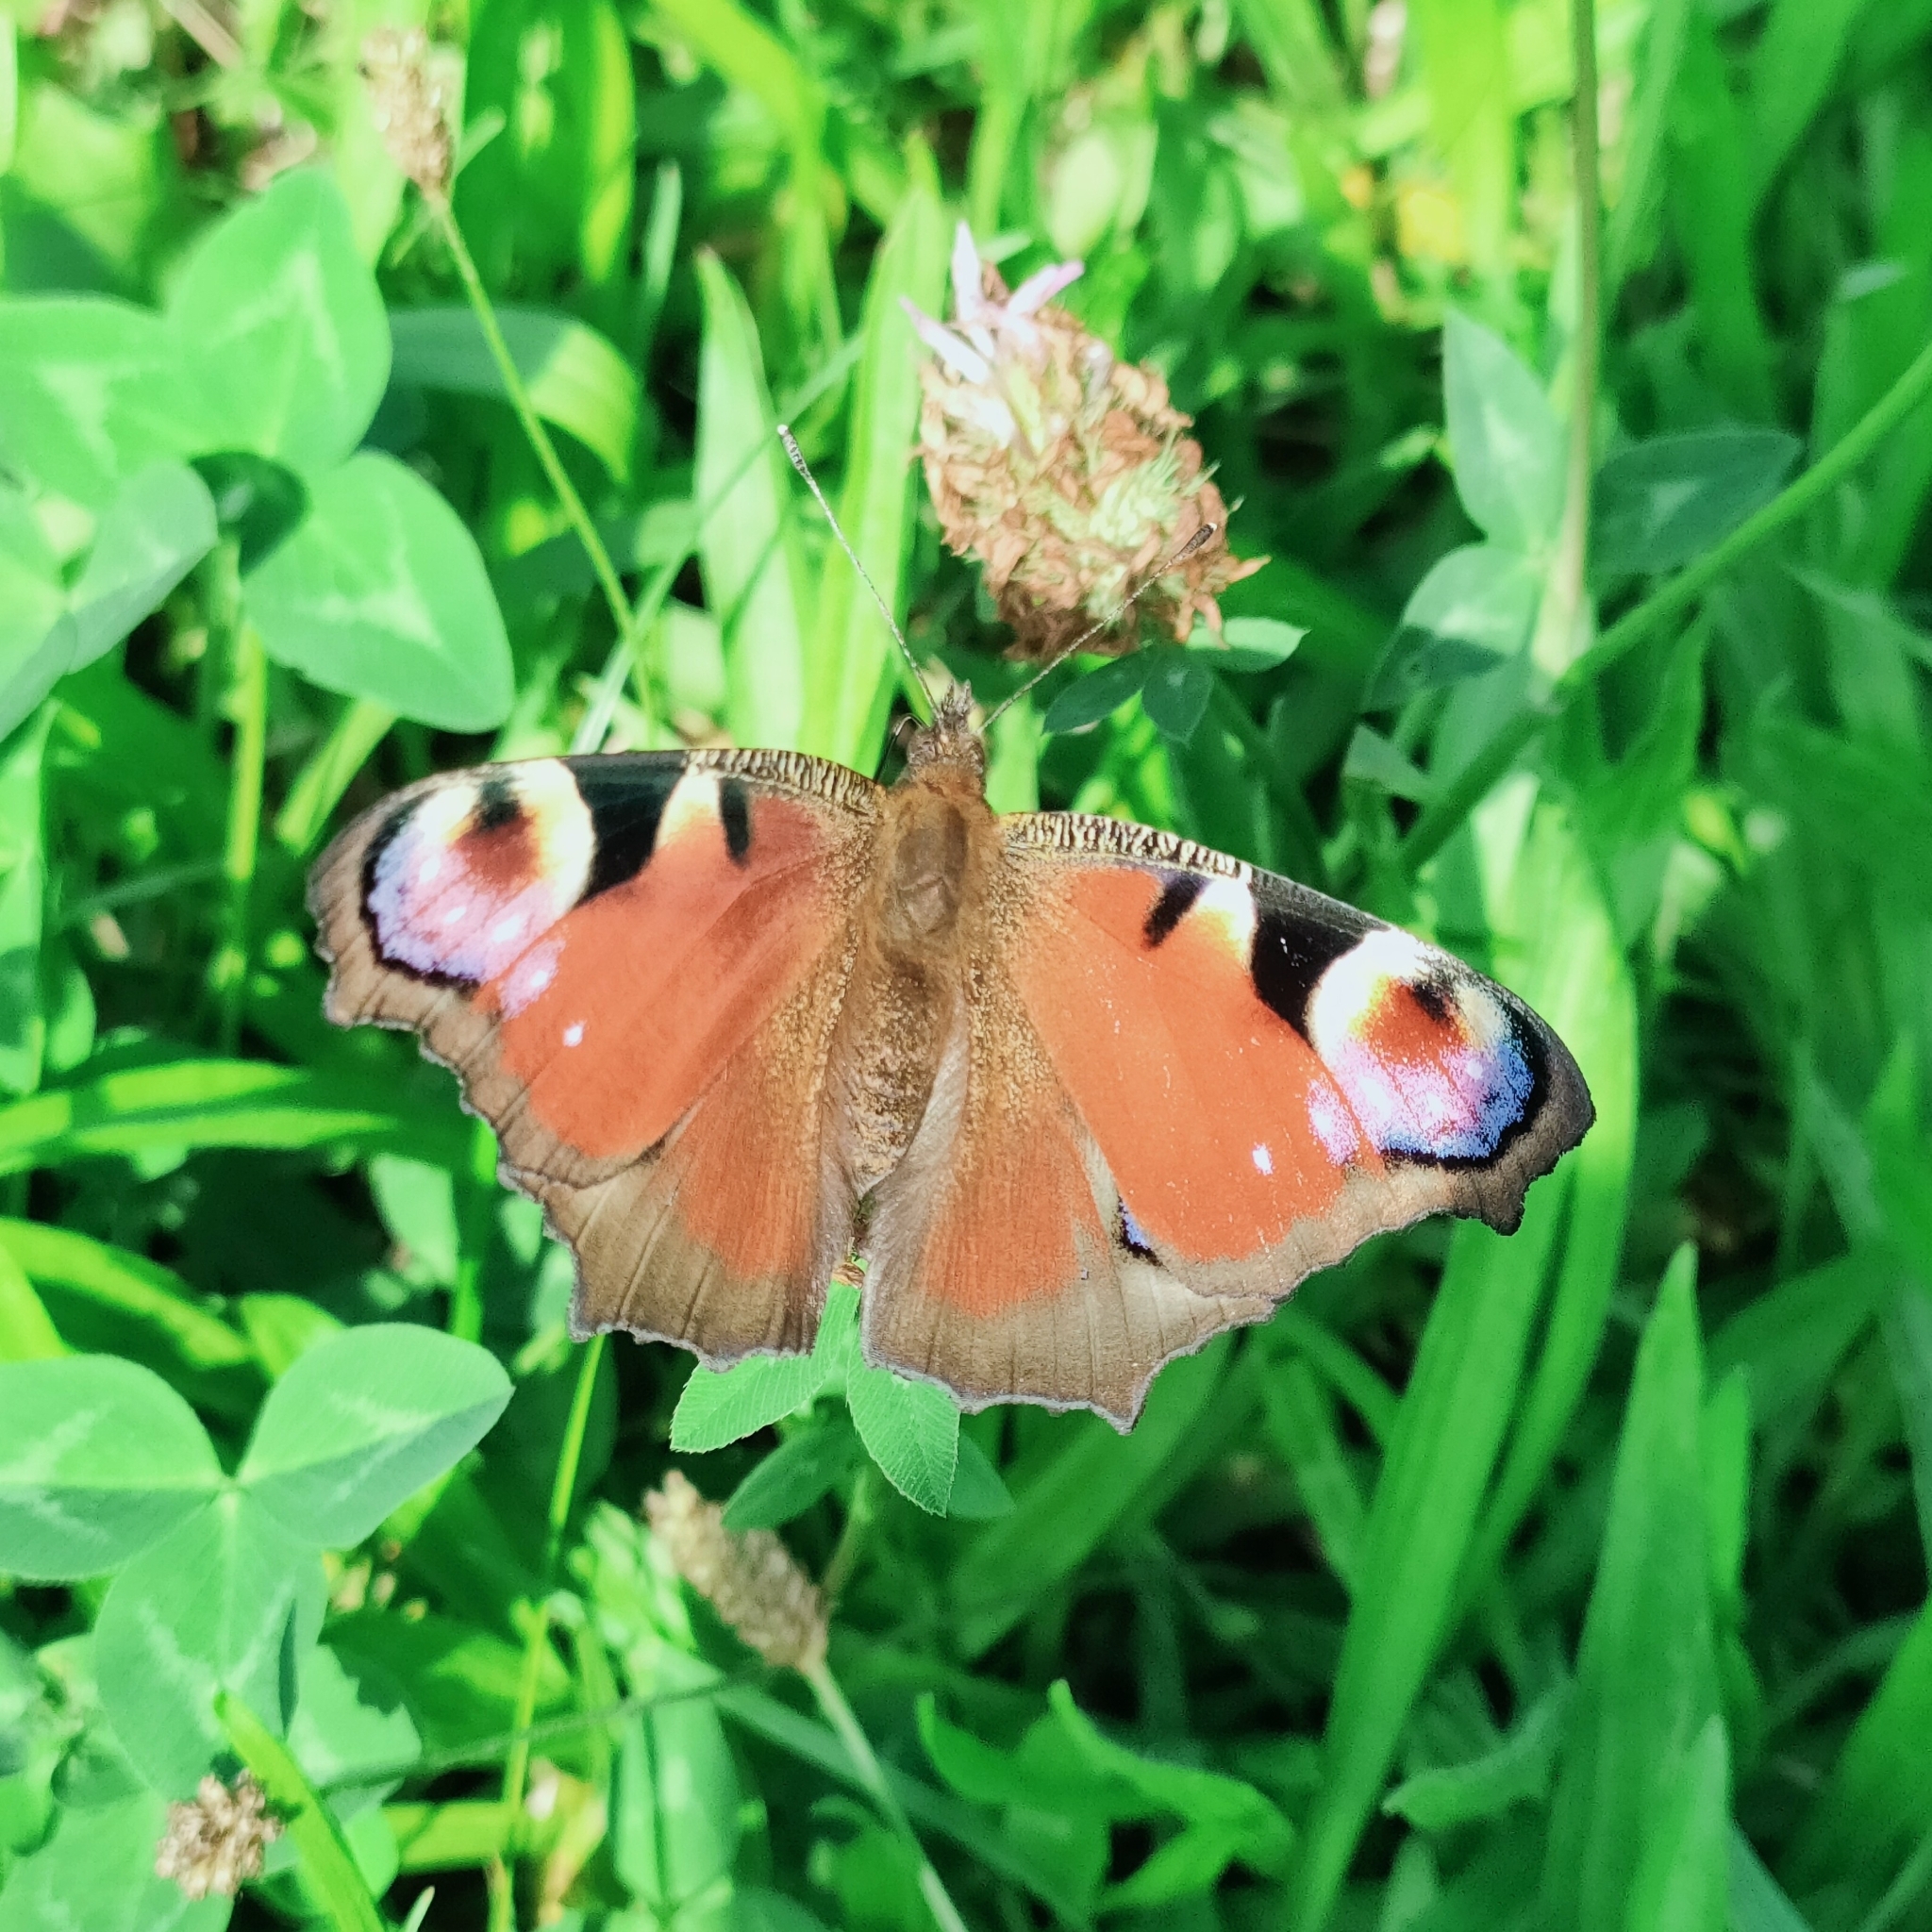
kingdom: Animalia
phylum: Arthropoda
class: Insecta
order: Lepidoptera
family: Nymphalidae
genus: Aglais
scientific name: Aglais io
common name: Peacock
